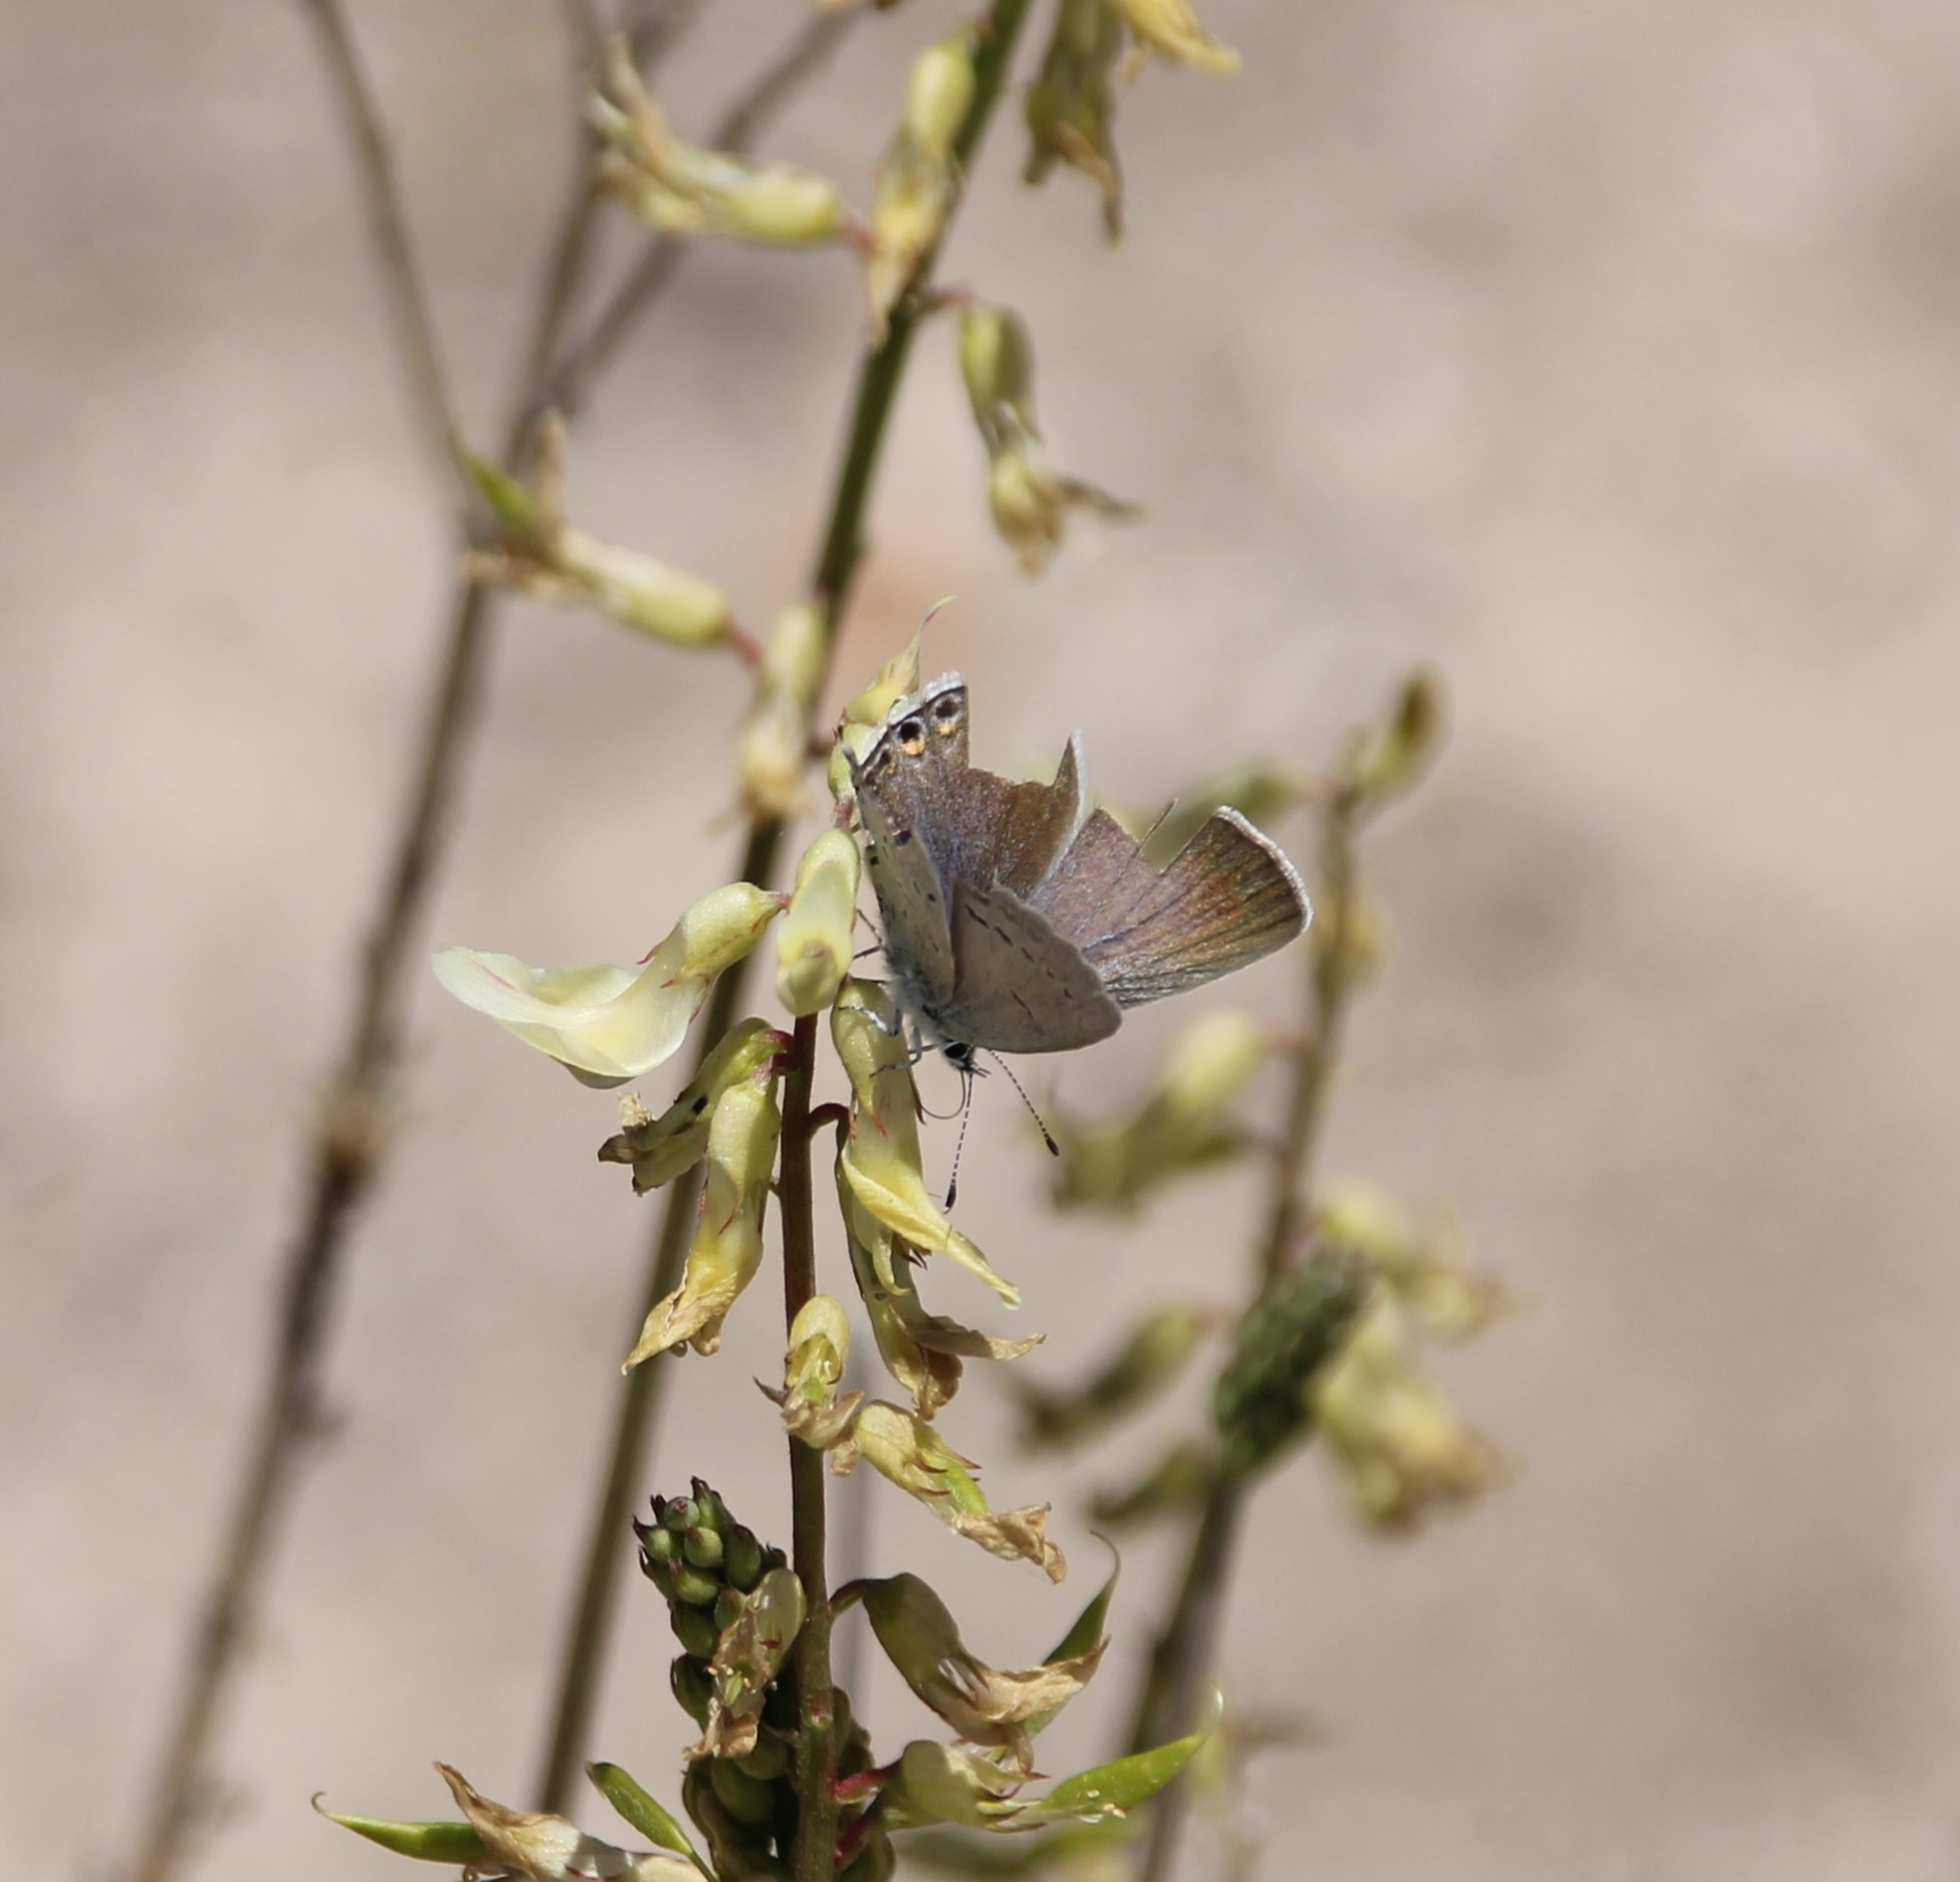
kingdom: Animalia
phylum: Arthropoda
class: Insecta
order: Lepidoptera
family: Lycaenidae
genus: Elkalyce
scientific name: Elkalyce amyntula
